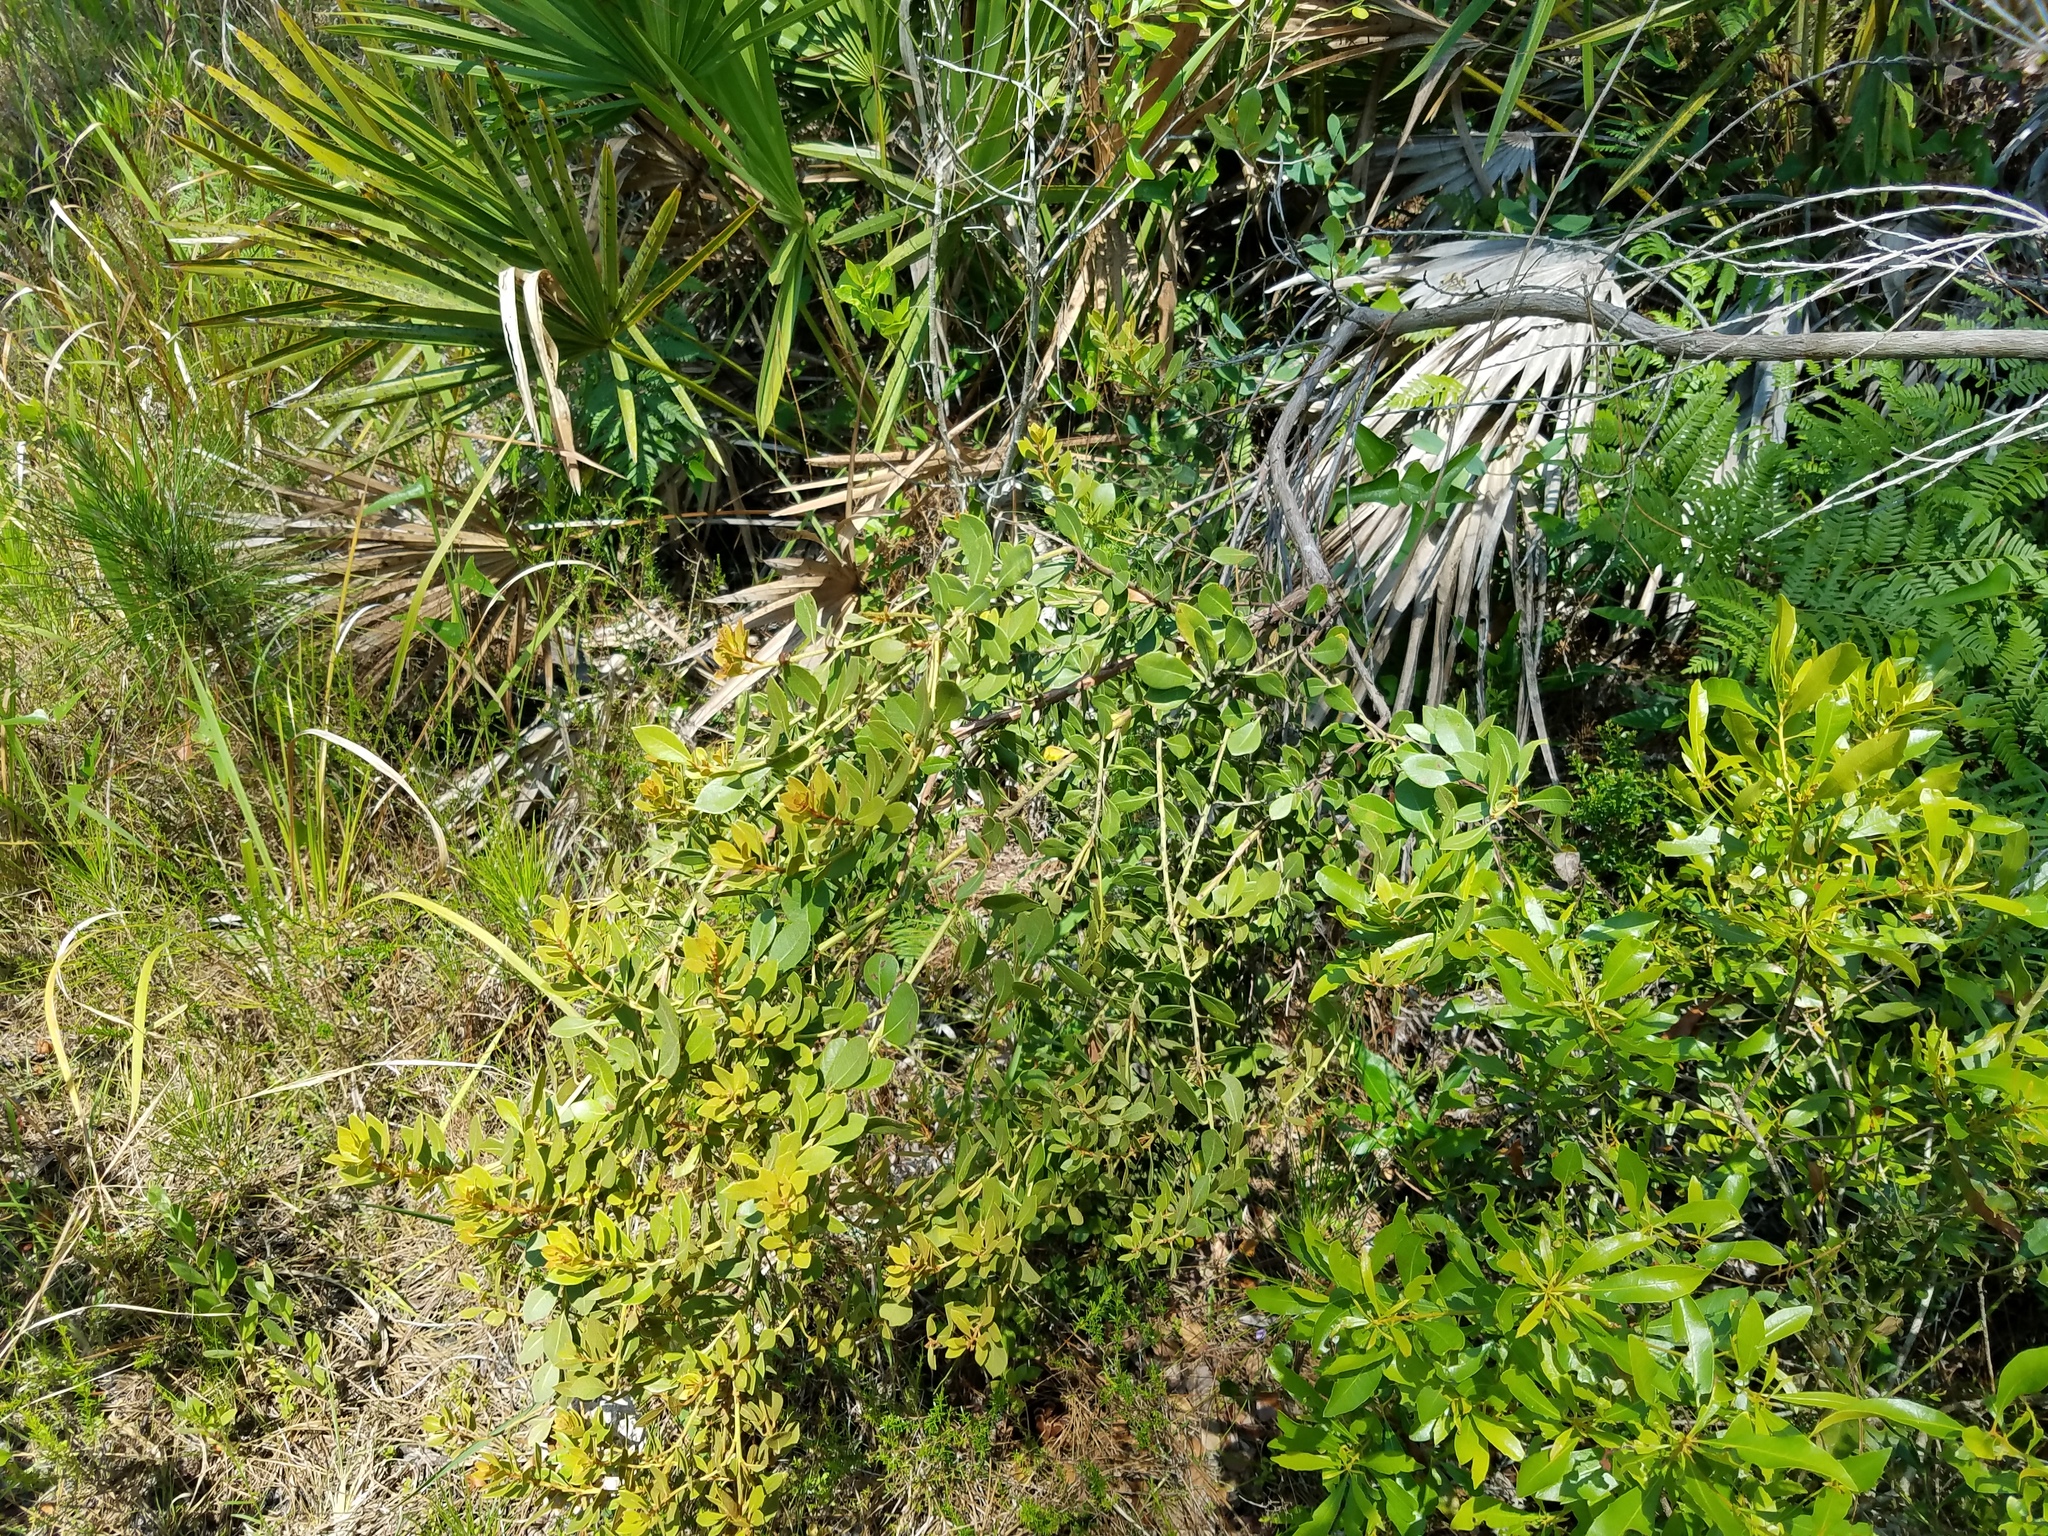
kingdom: Plantae
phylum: Tracheophyta
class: Magnoliopsida
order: Ericales
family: Ericaceae
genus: Lyonia
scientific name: Lyonia fruticosa
